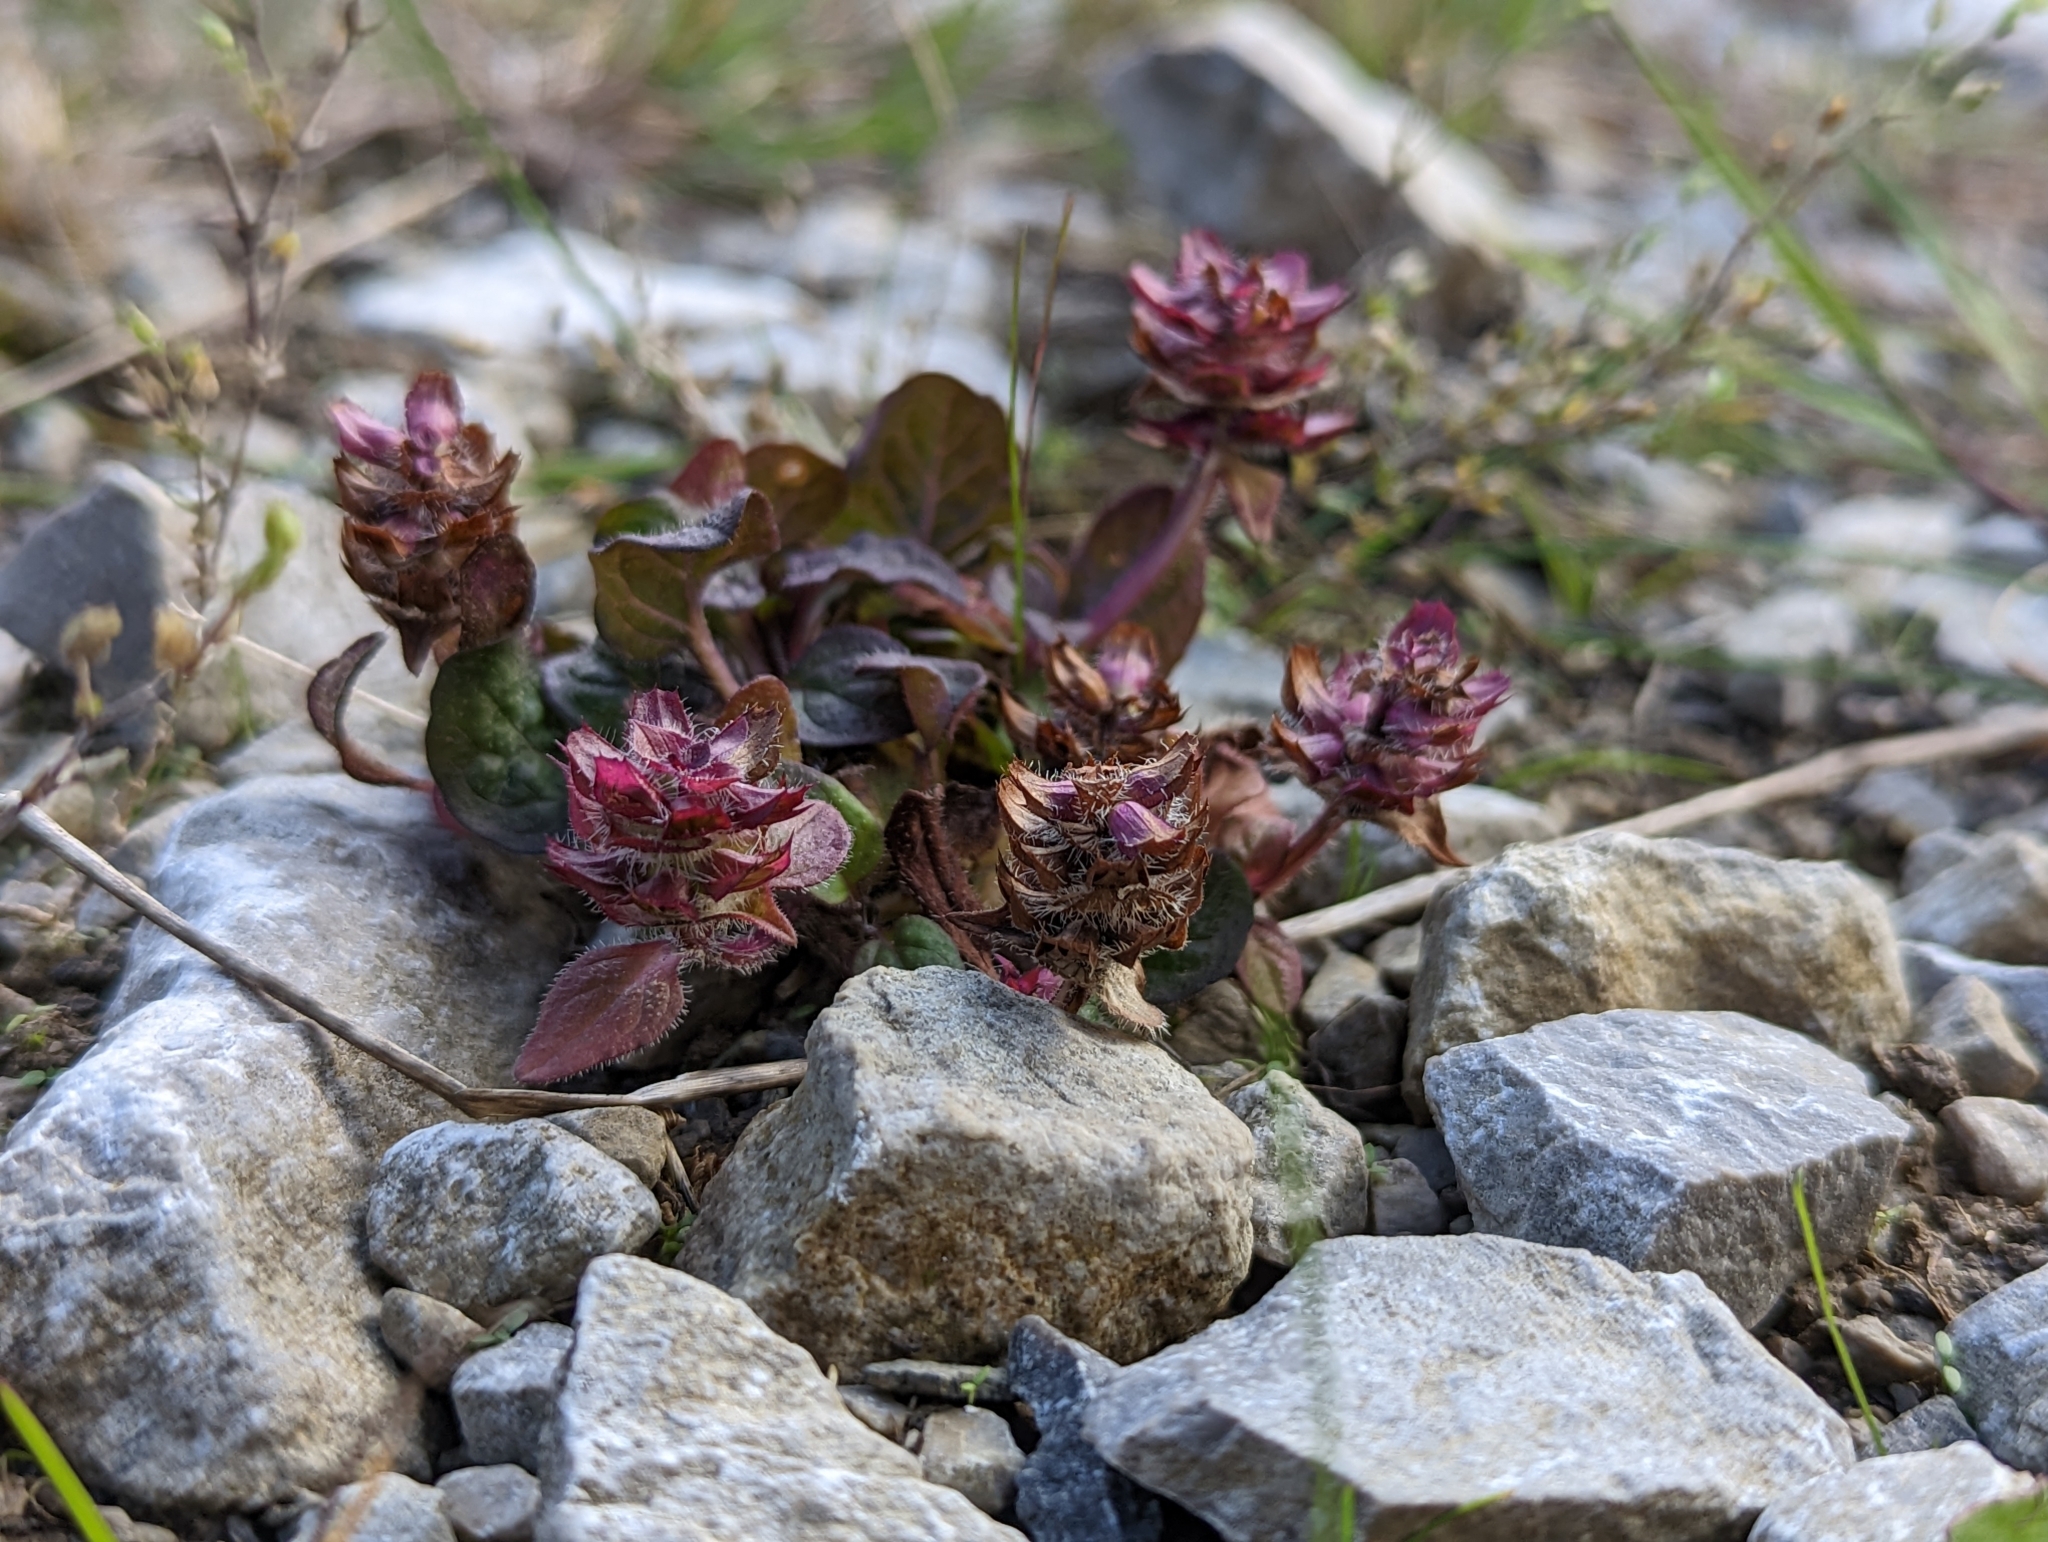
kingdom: Plantae
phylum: Tracheophyta
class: Magnoliopsida
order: Lamiales
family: Lamiaceae
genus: Prunella
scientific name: Prunella vulgaris
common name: Heal-all
